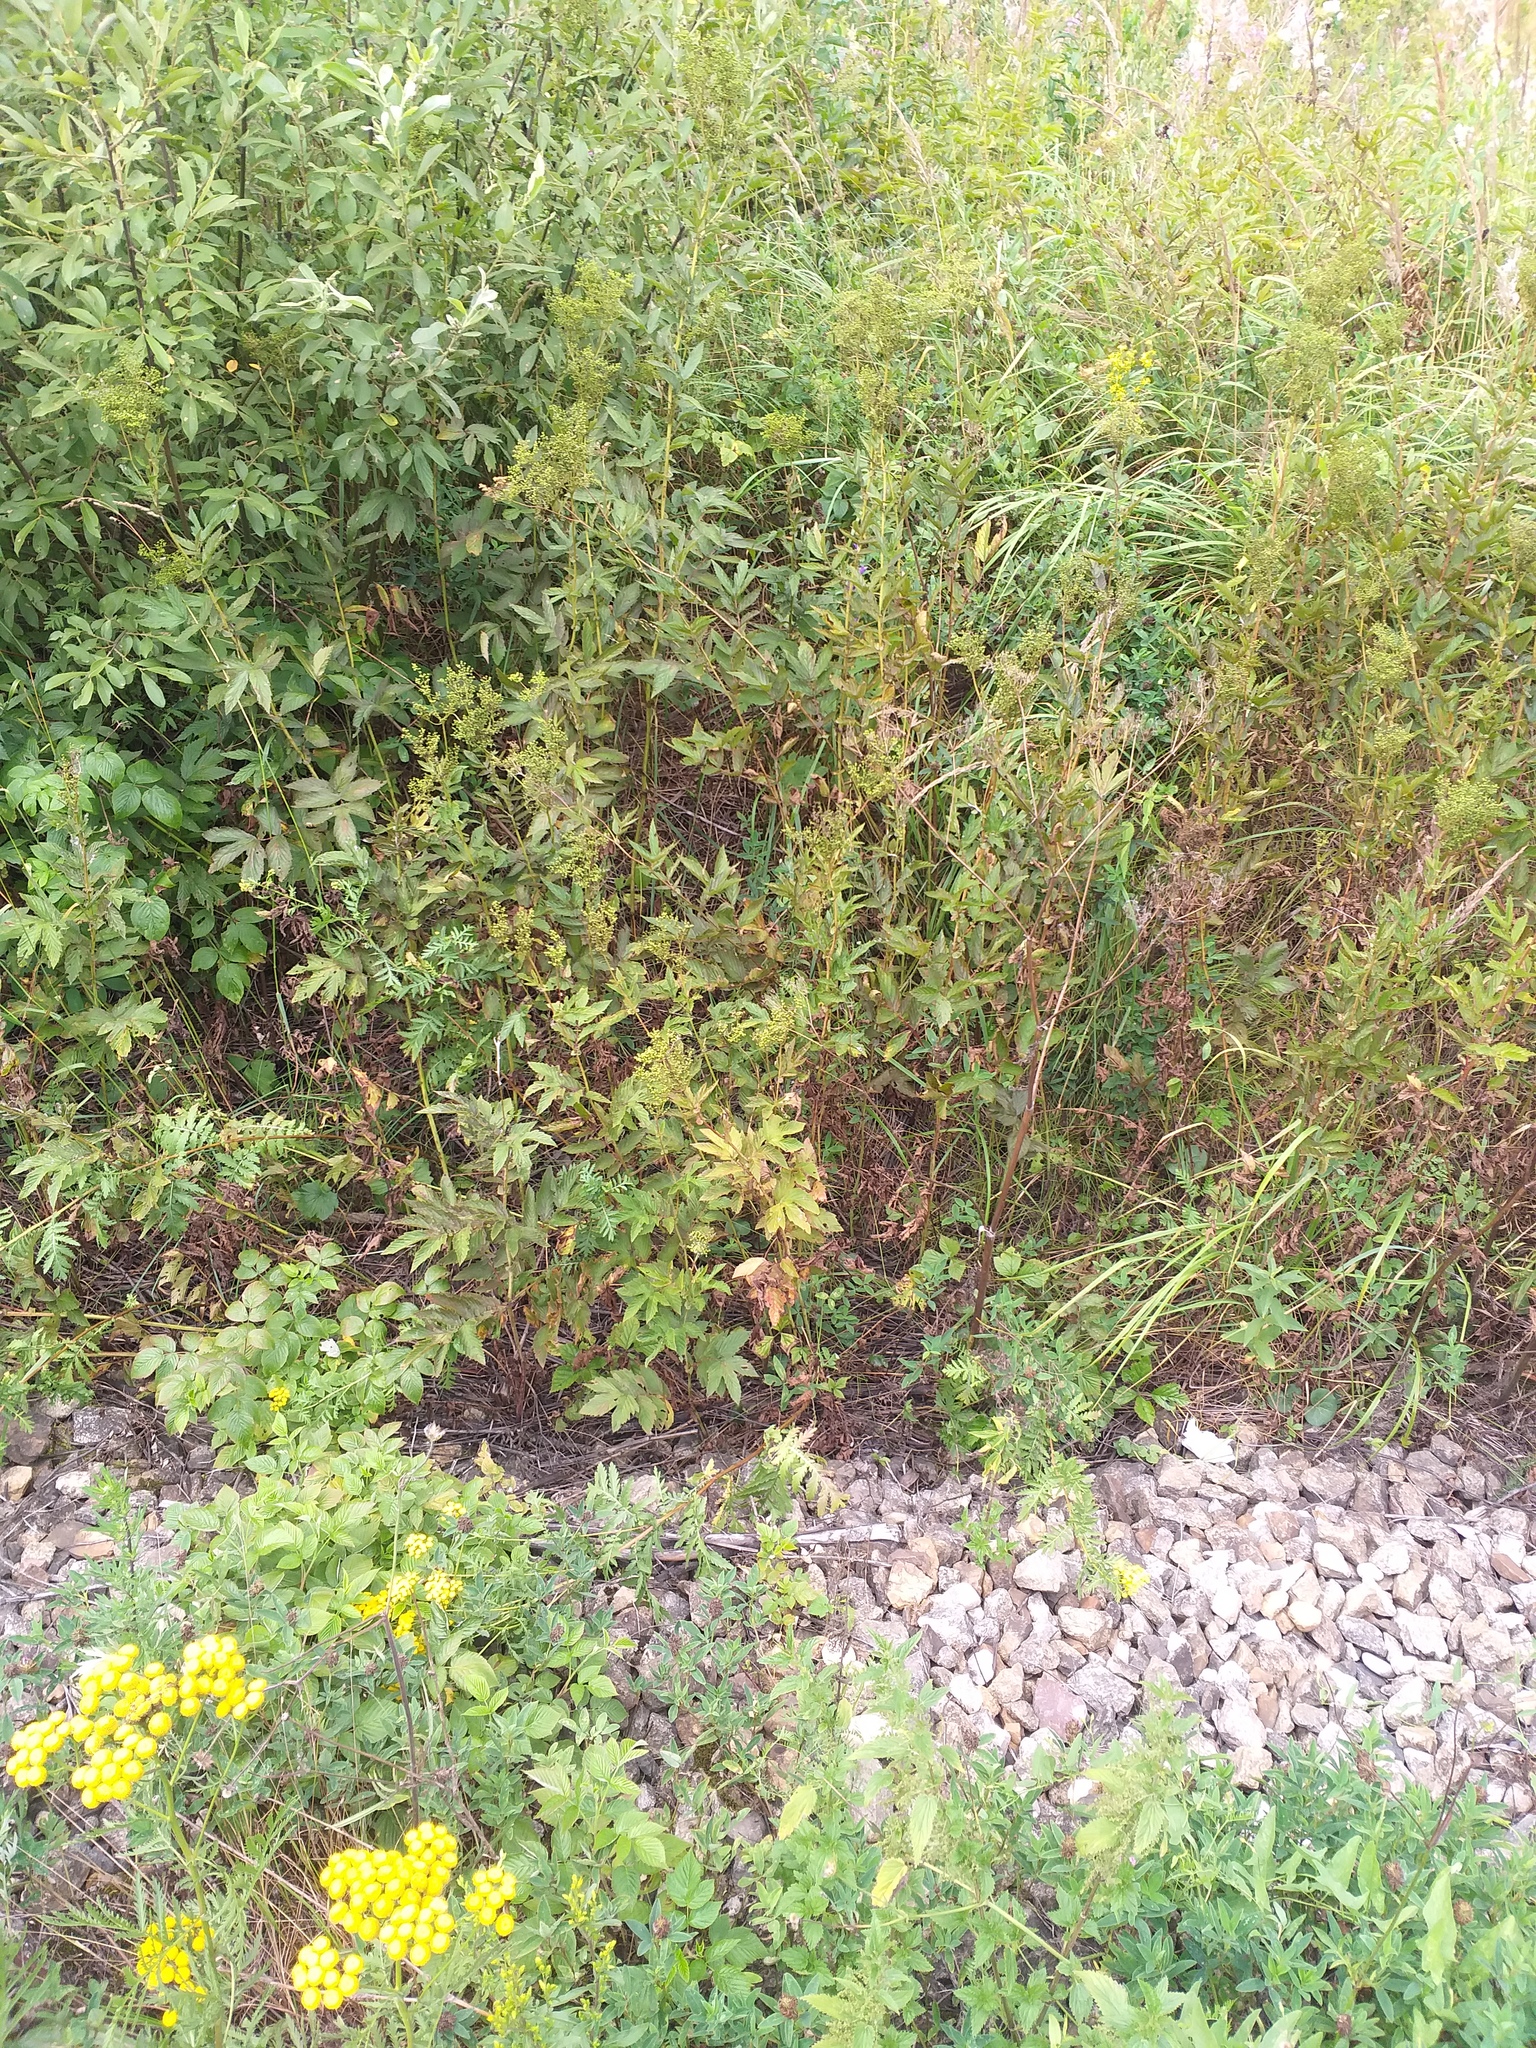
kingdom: Plantae
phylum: Tracheophyta
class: Magnoliopsida
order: Rosales
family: Rosaceae
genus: Filipendula
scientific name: Filipendula ulmaria
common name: Meadowsweet
